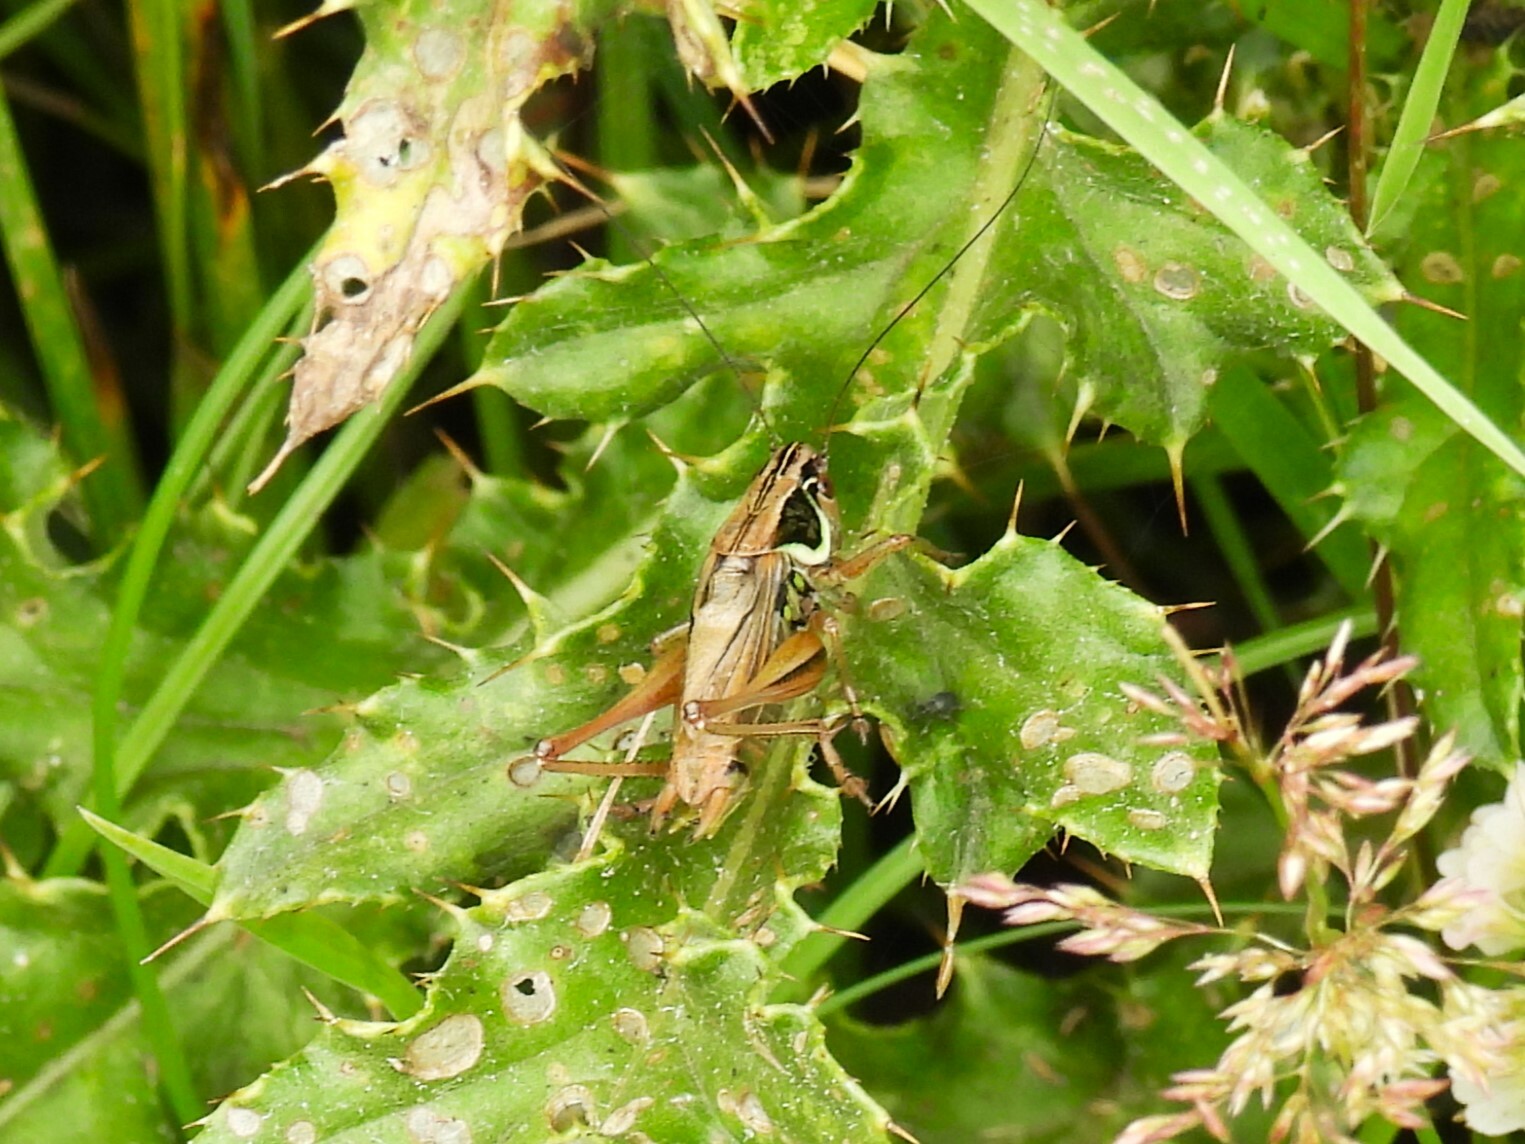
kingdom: Animalia
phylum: Arthropoda
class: Insecta
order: Orthoptera
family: Tettigoniidae
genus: Roeseliana
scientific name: Roeseliana roeselii
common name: Roesel's bush cricket
